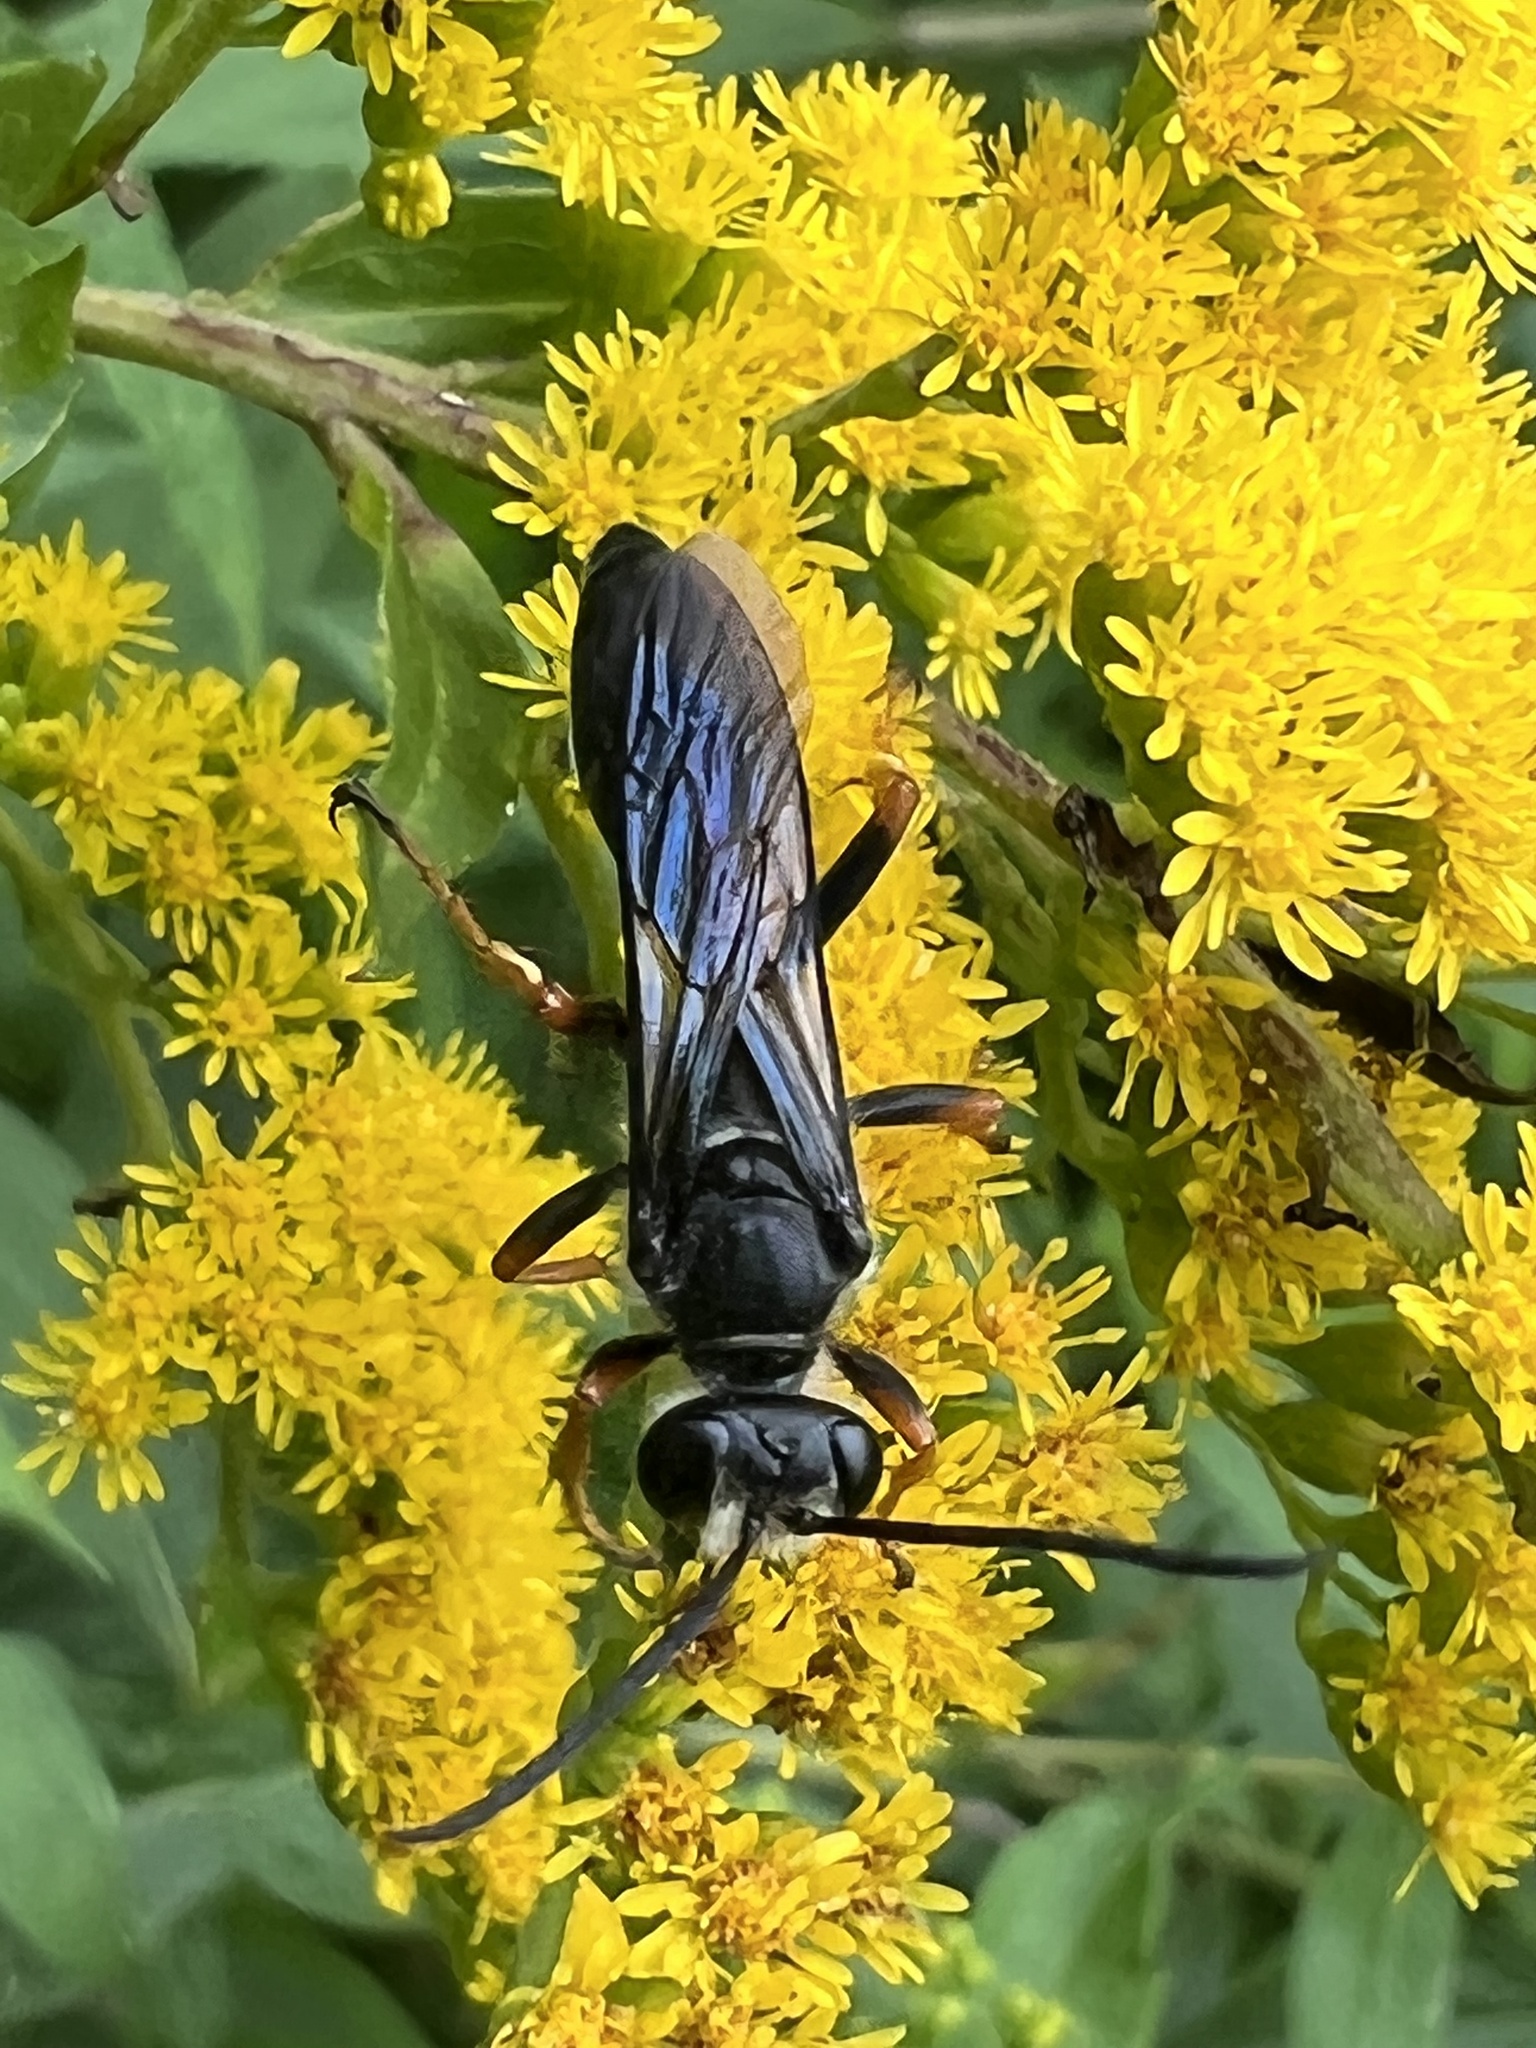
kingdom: Animalia
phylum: Arthropoda
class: Insecta
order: Hymenoptera
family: Sphecidae
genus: Sphex
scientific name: Sphex nudus
